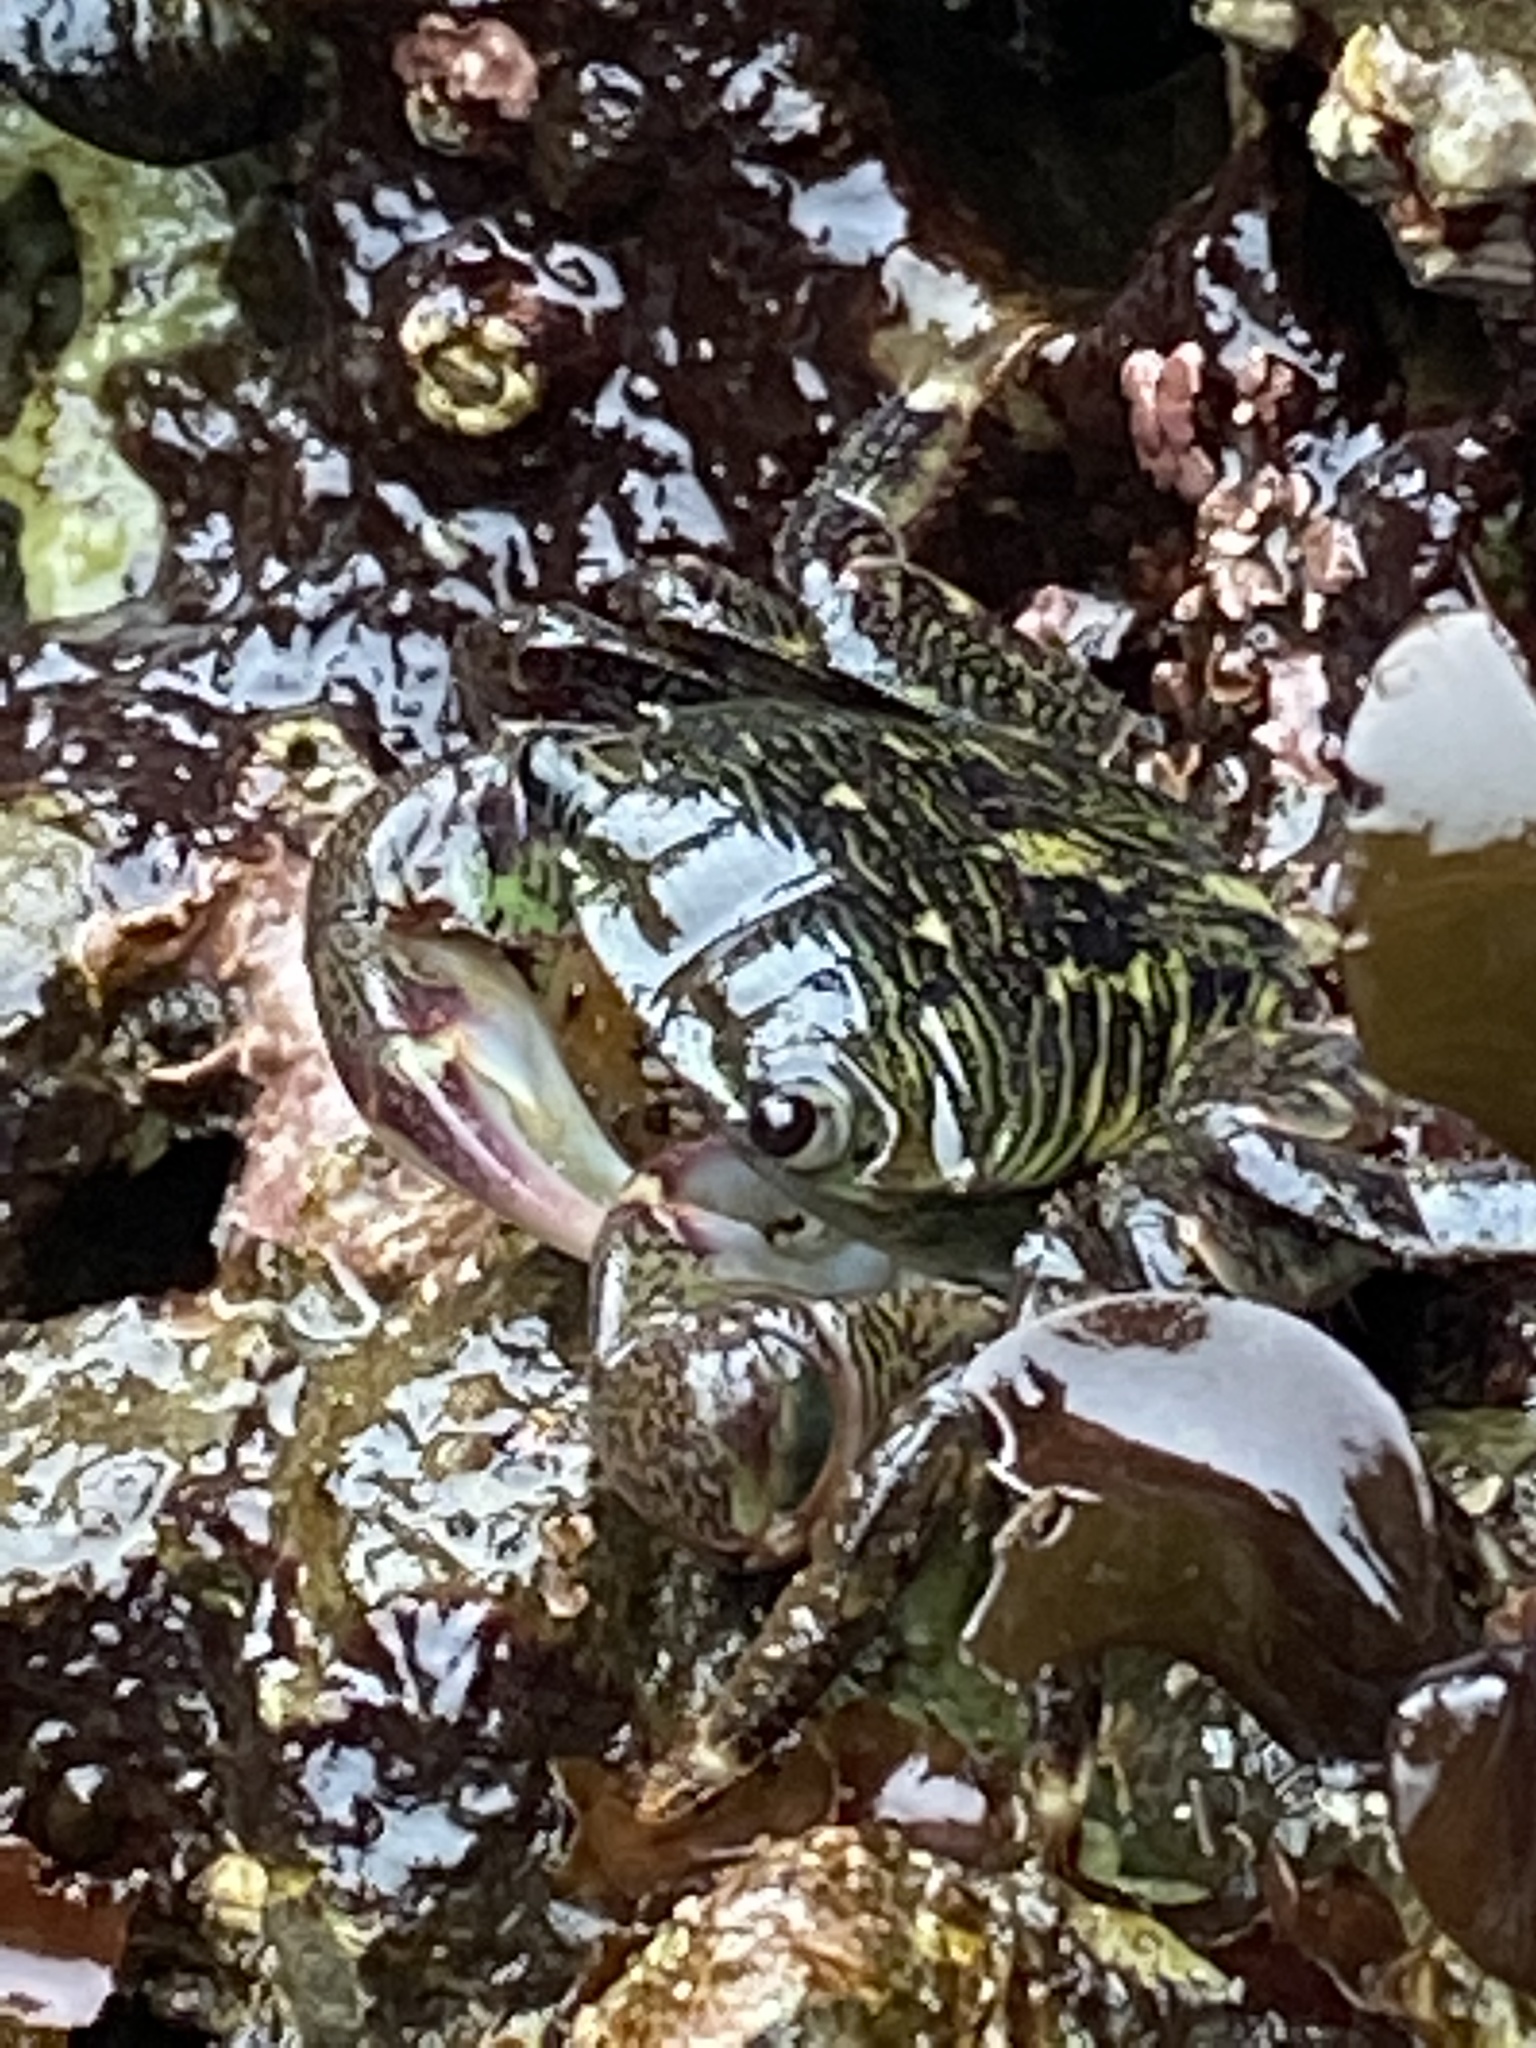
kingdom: Animalia
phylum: Arthropoda
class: Malacostraca
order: Decapoda
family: Grapsidae
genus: Pachygrapsus
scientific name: Pachygrapsus crassipes
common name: Striped shore crab
